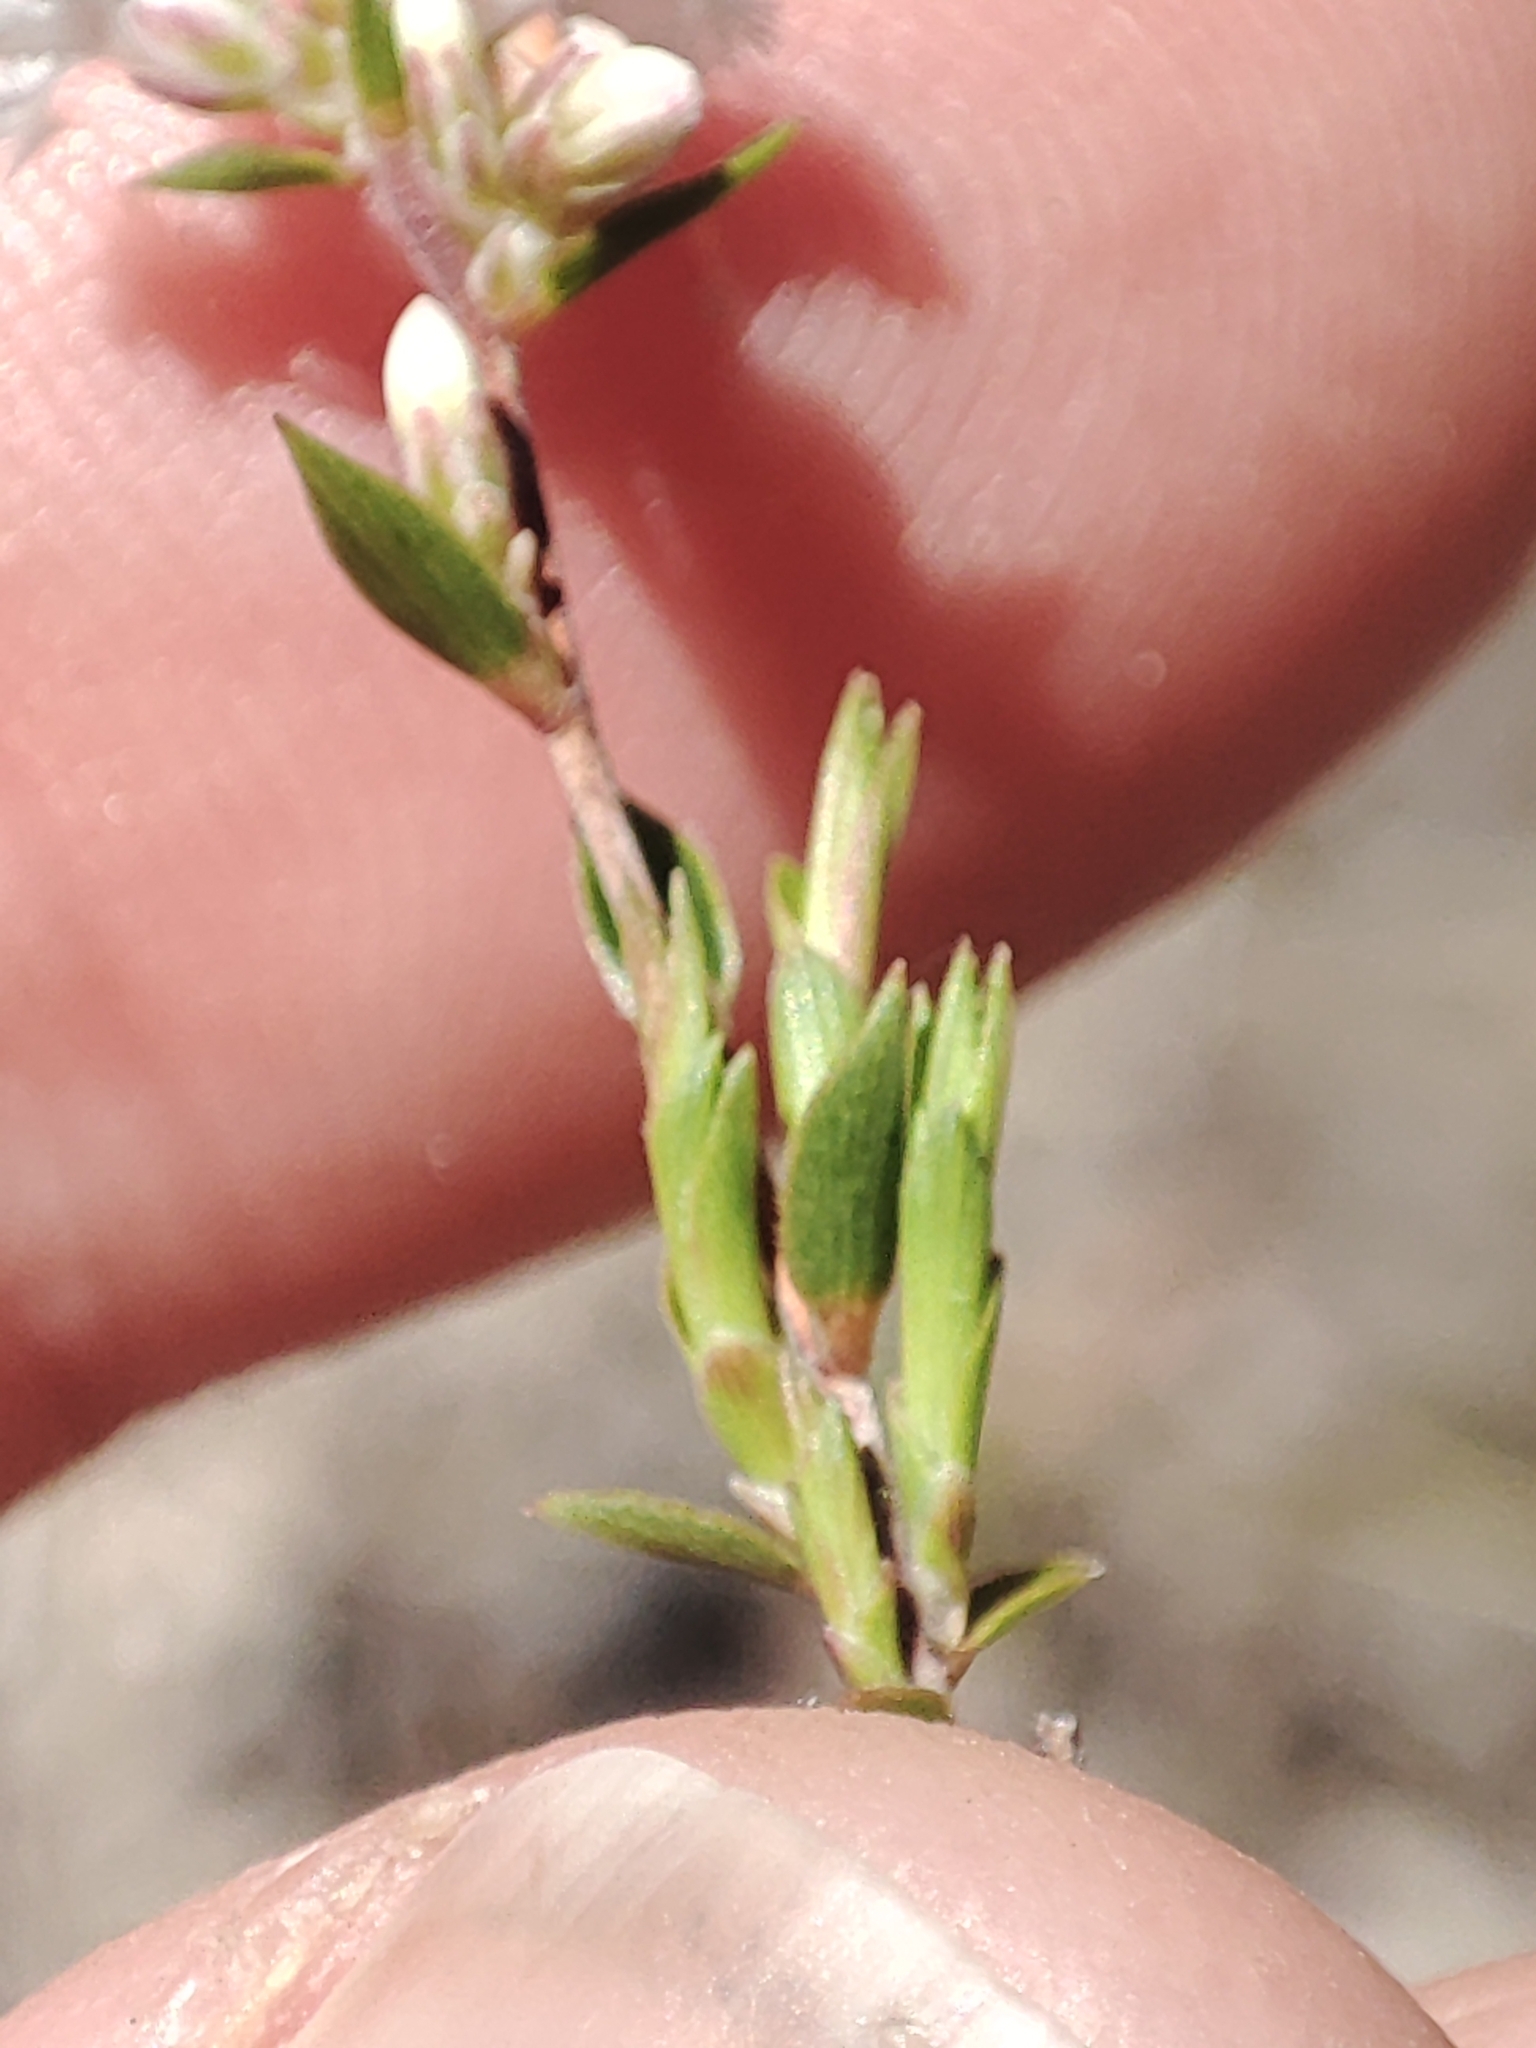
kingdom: Plantae
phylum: Tracheophyta
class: Magnoliopsida
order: Ericales
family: Ericaceae
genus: Leucopogon
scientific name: Leucopogon virgatus
